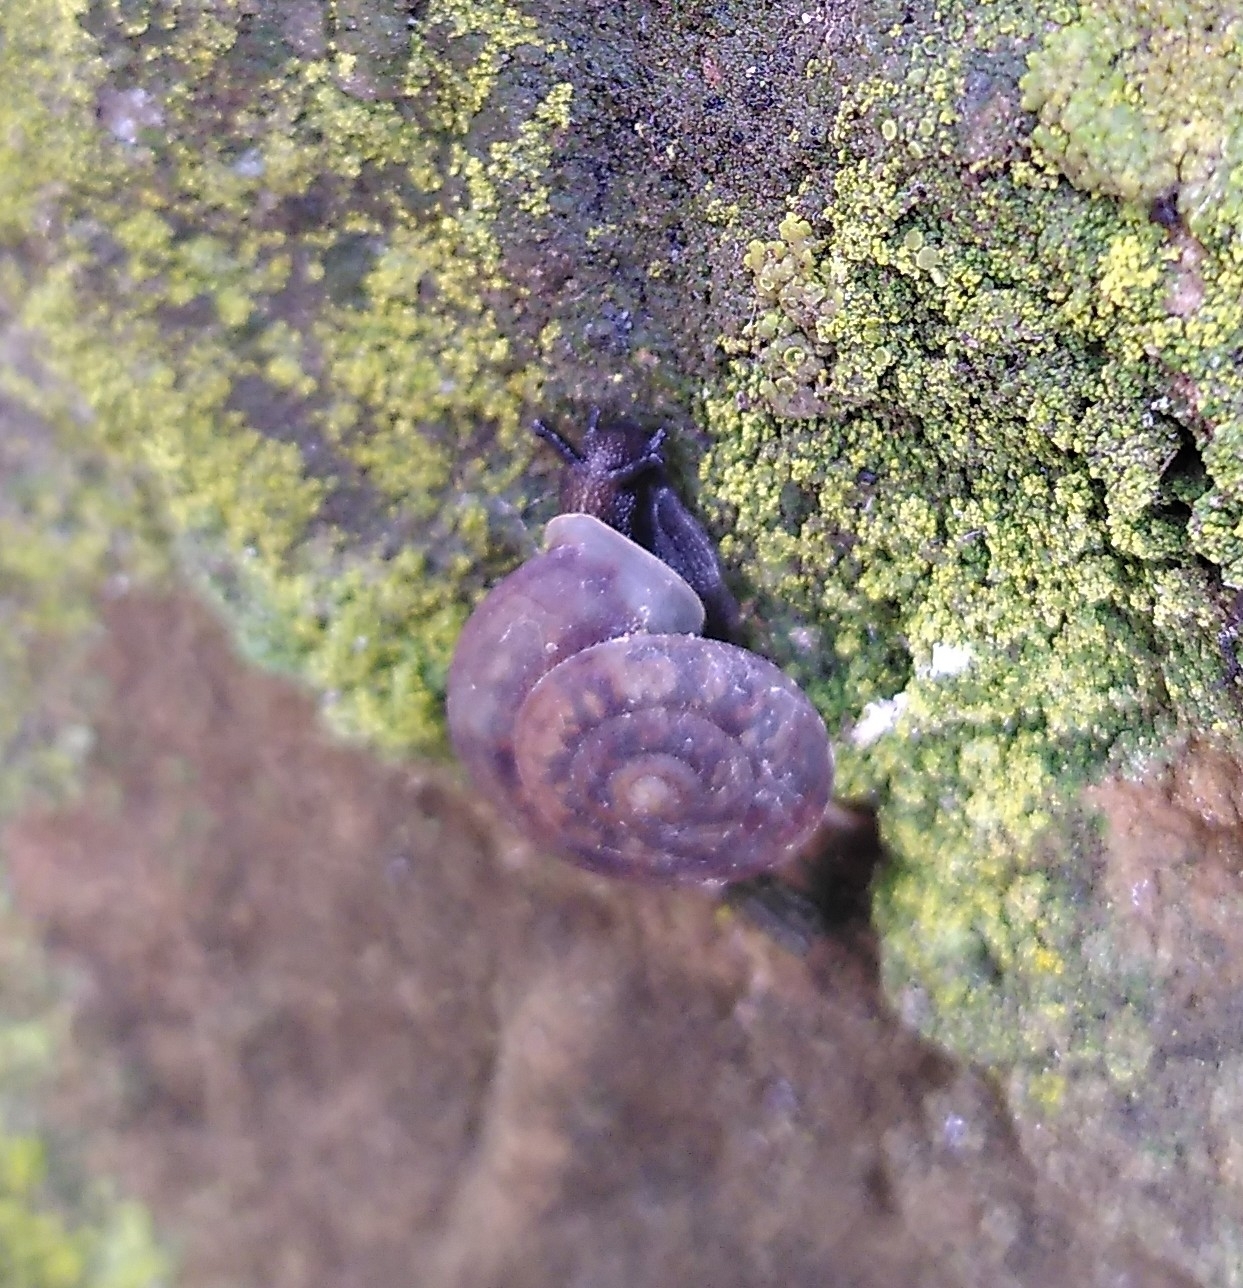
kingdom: Animalia
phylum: Mollusca
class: Gastropoda
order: Stylommatophora
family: Helicidae
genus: Helicigona
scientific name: Helicigona lapicida
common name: Lapidary snail
